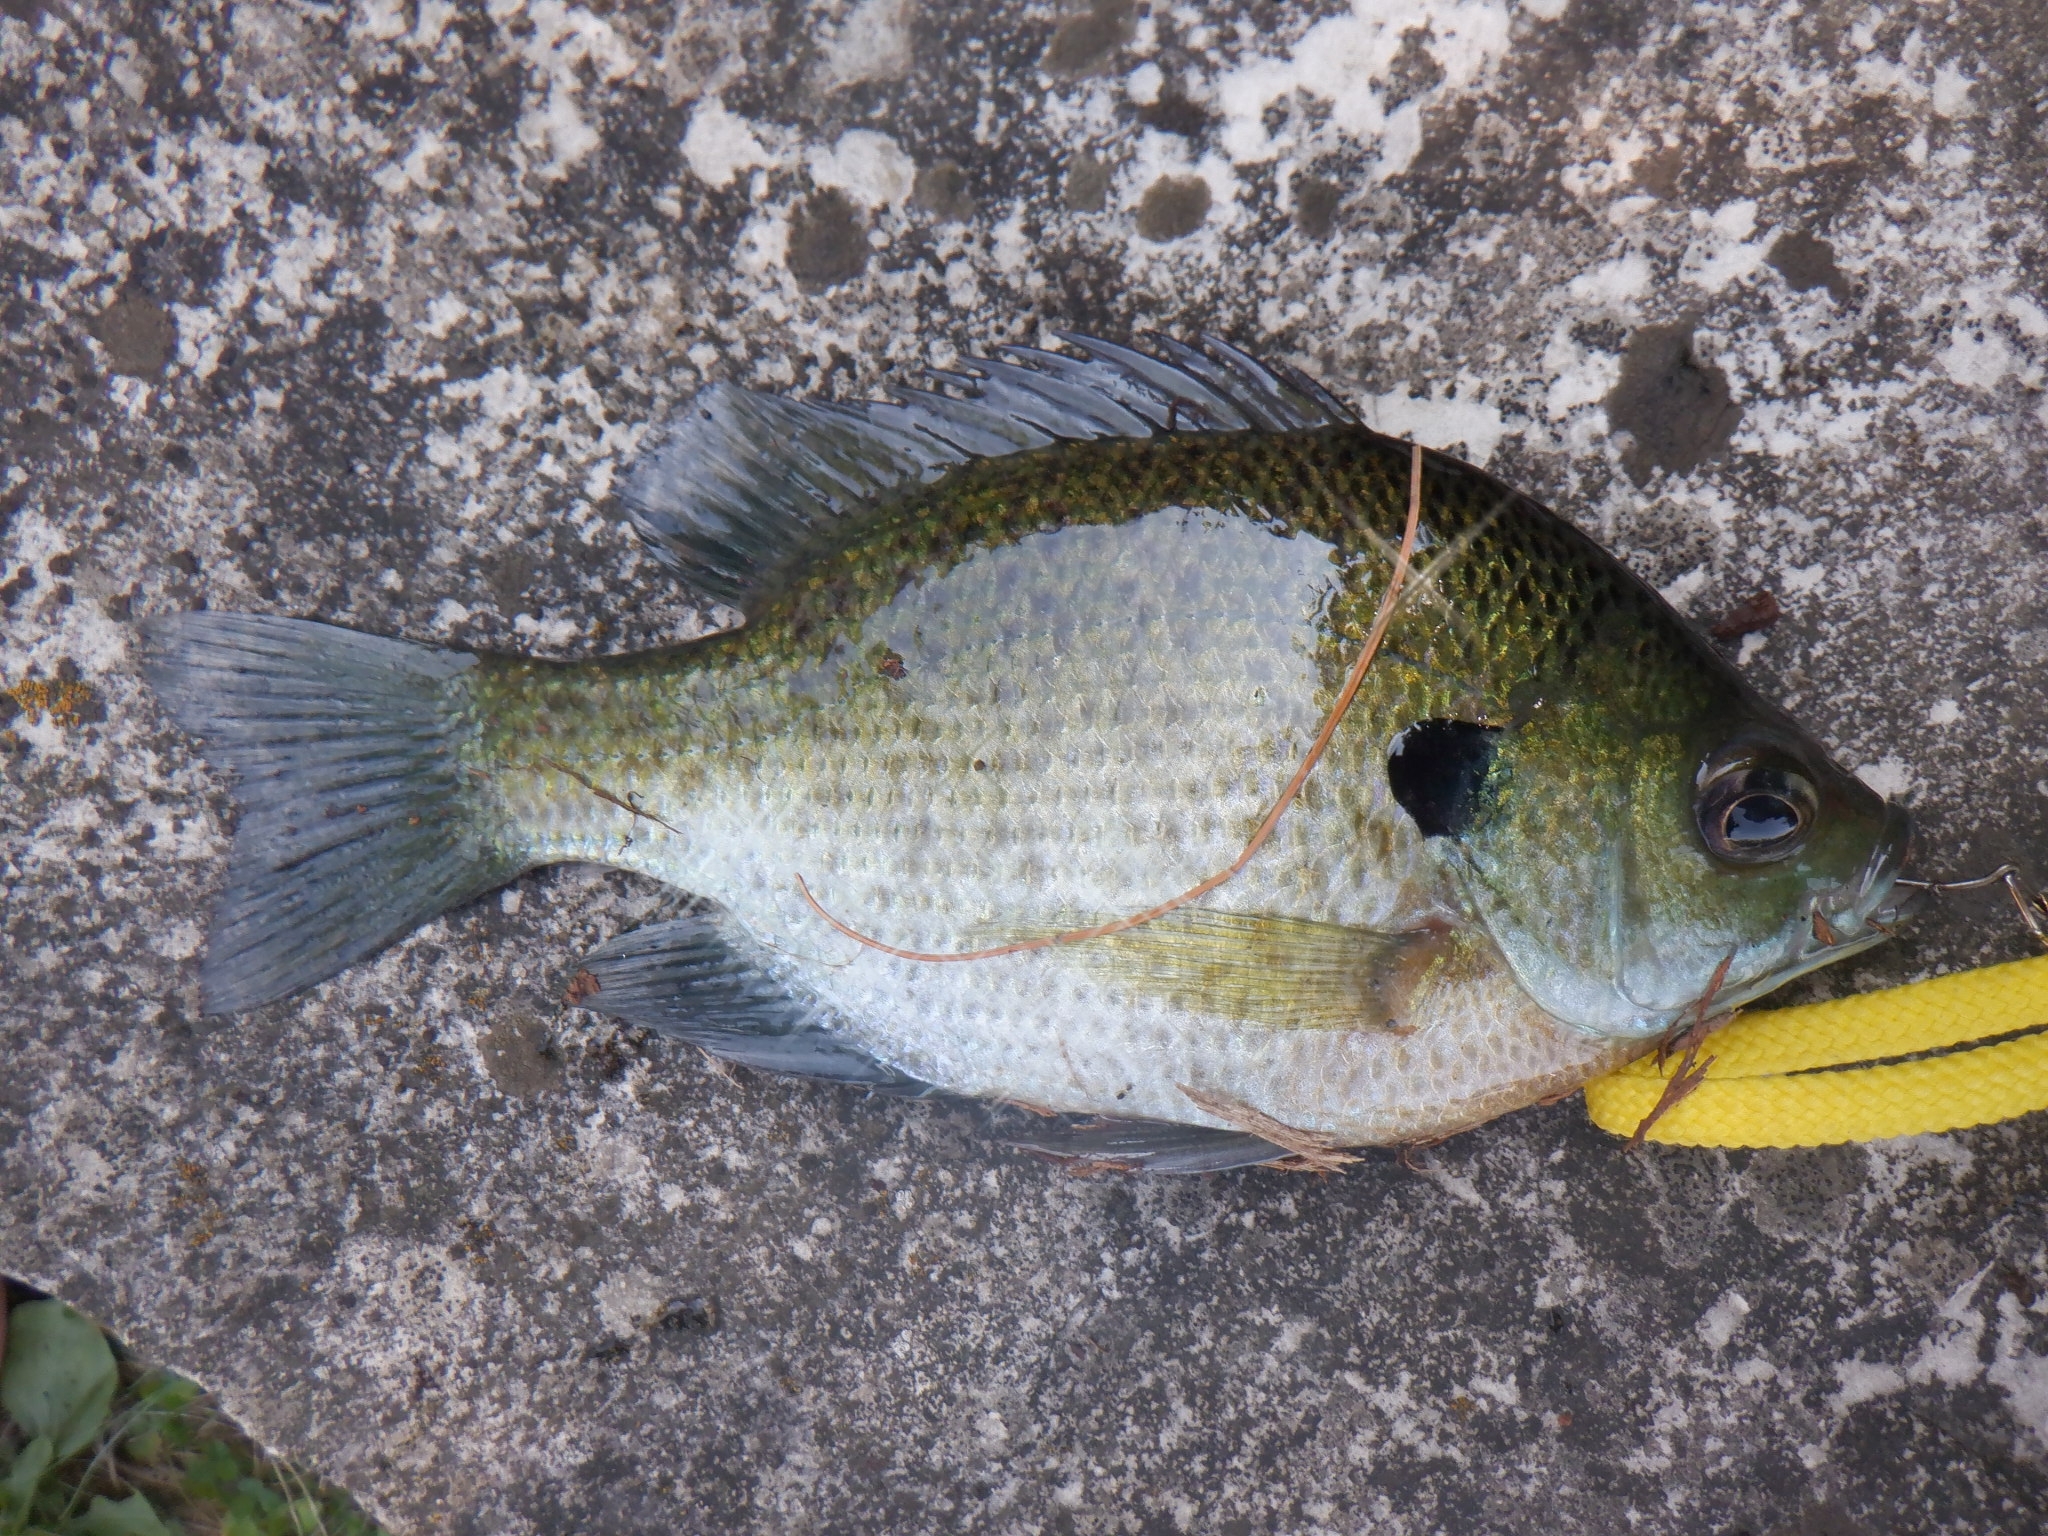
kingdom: Animalia
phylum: Chordata
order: Perciformes
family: Centrarchidae
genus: Lepomis
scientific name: Lepomis macrochirus
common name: Bluegill
